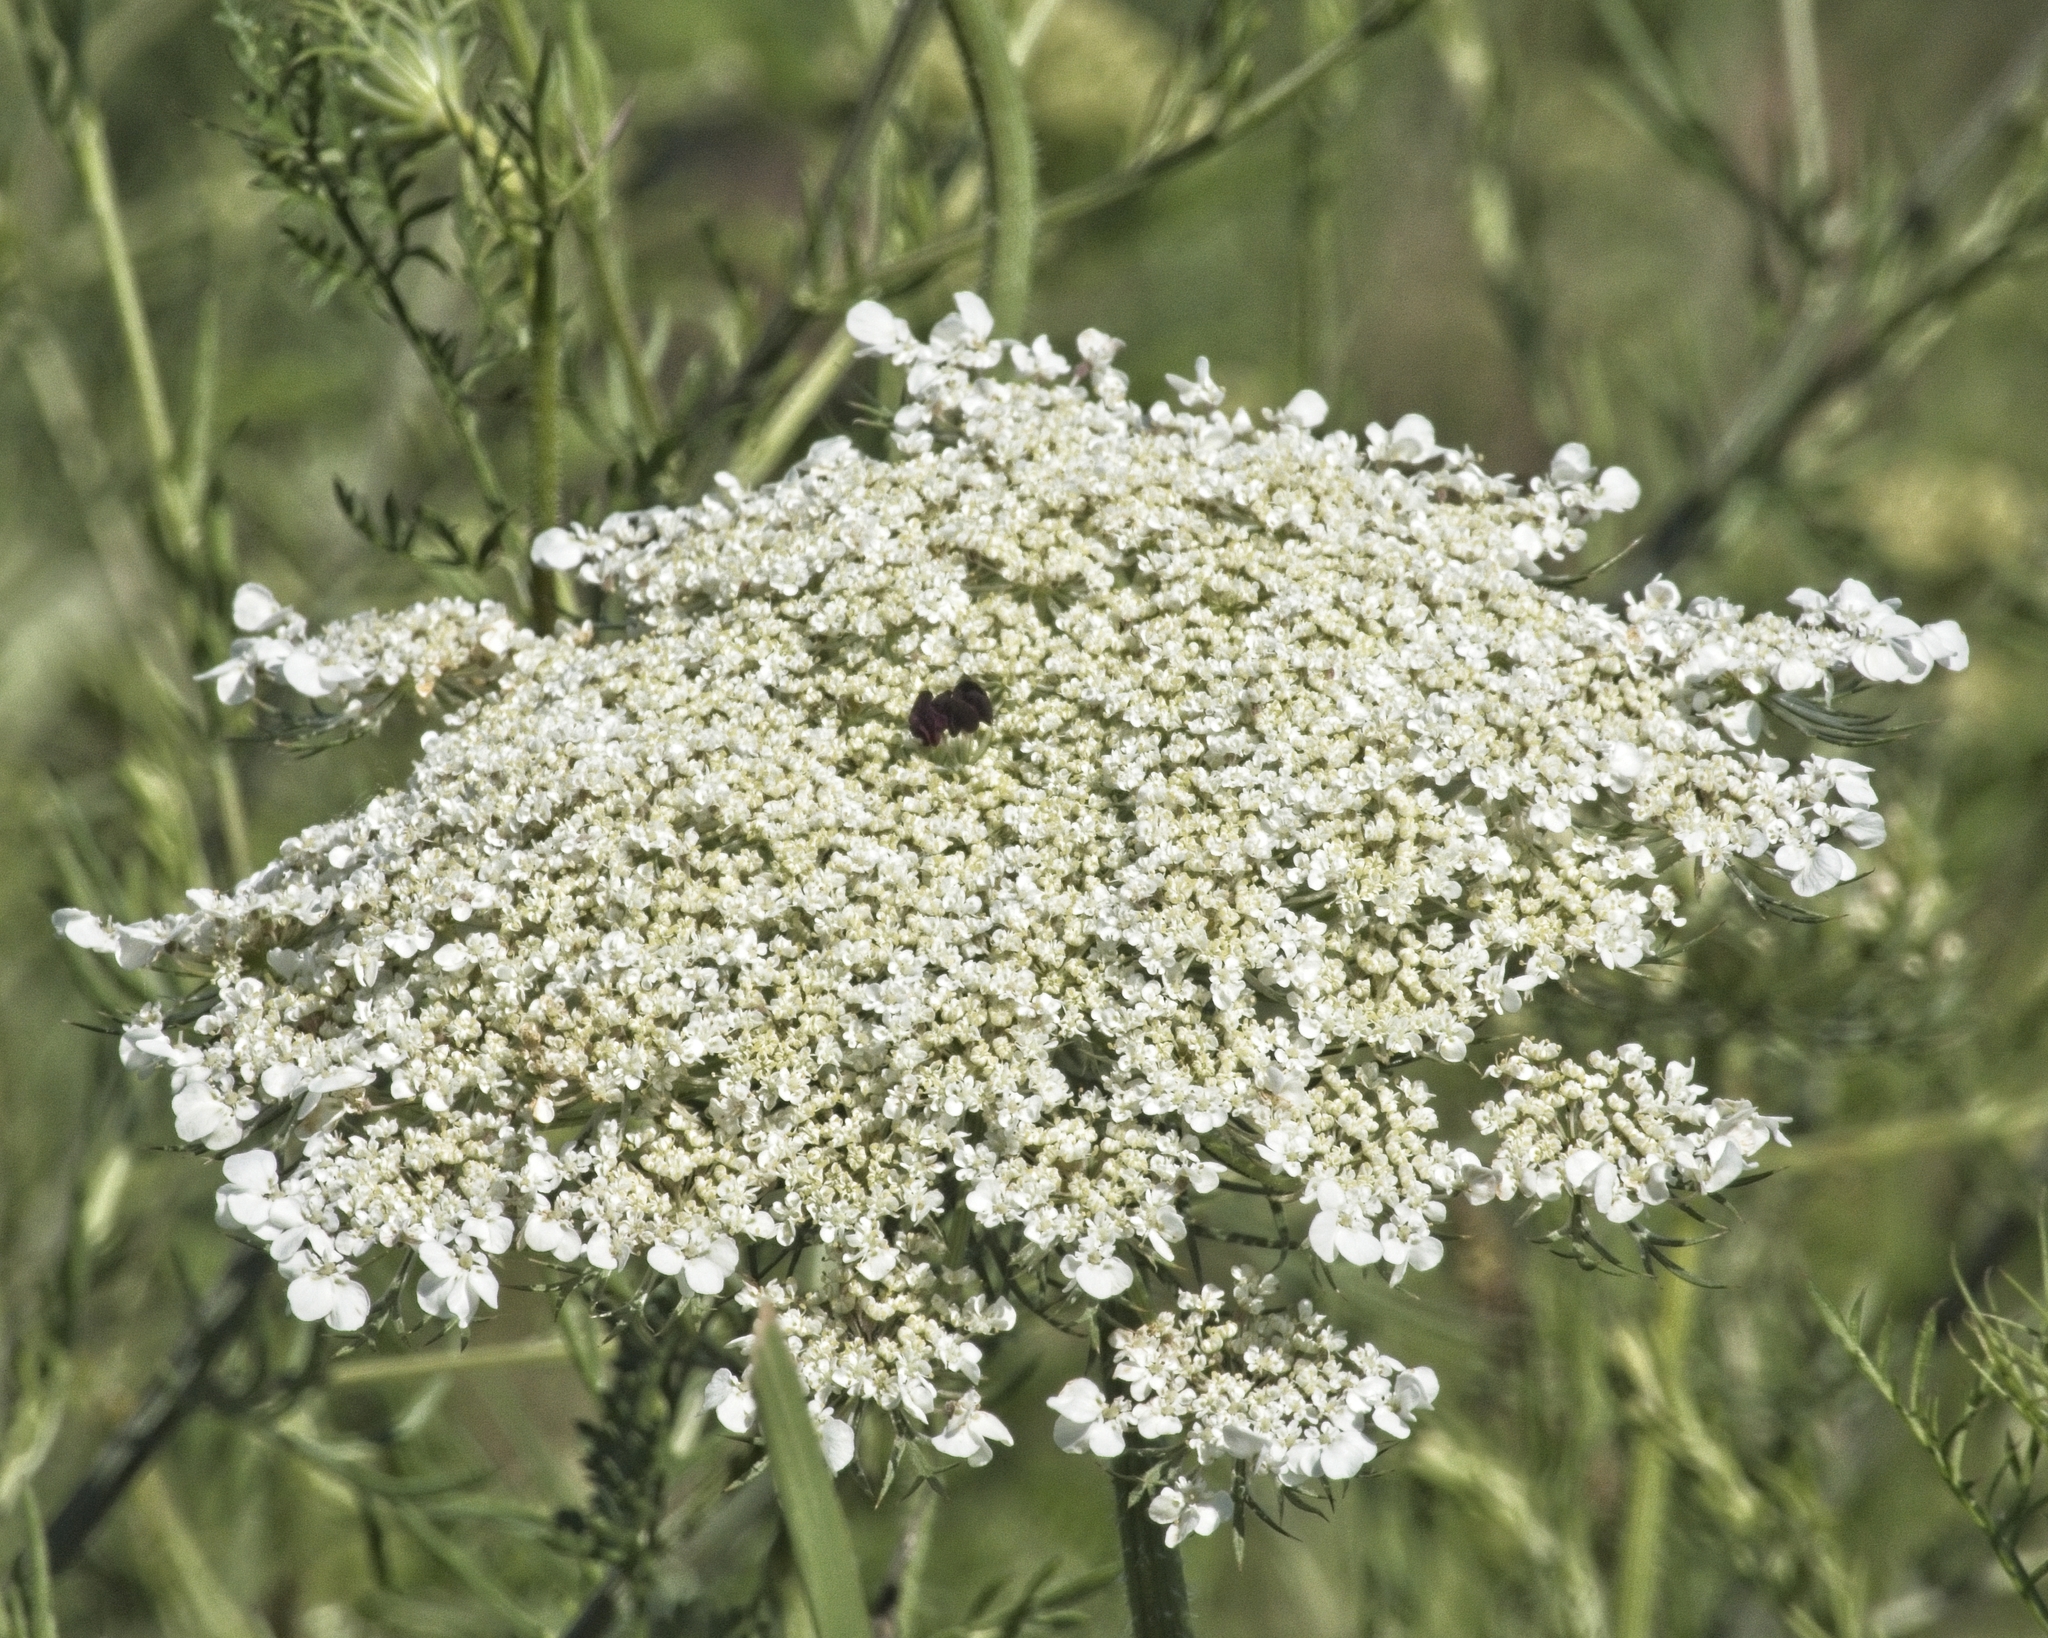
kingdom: Plantae
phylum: Tracheophyta
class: Magnoliopsida
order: Apiales
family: Apiaceae
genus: Daucus
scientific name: Daucus carota
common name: Wild carrot
